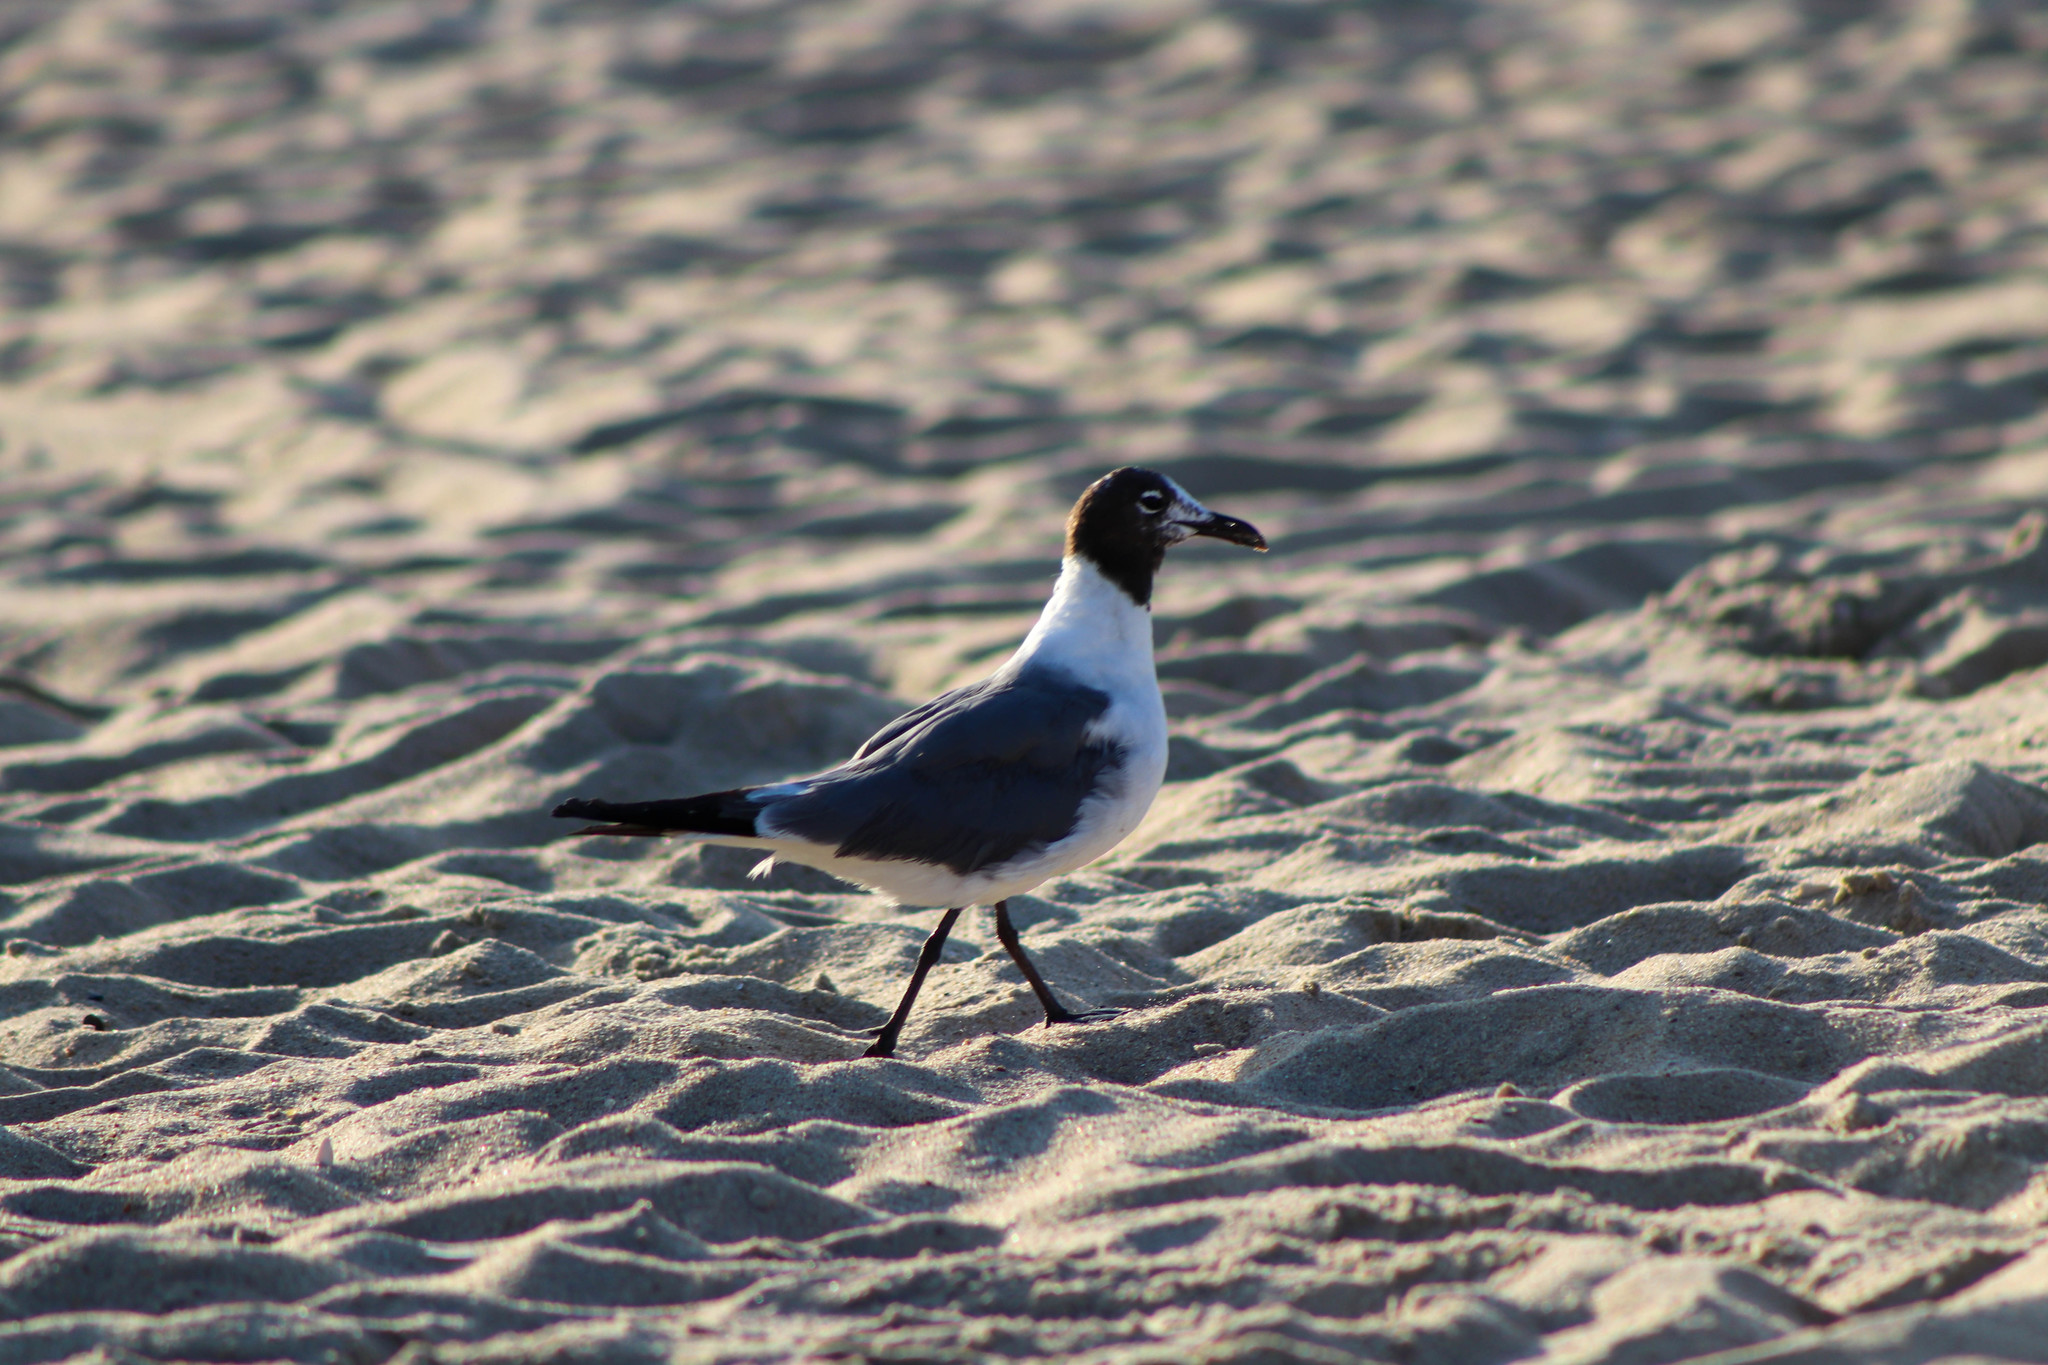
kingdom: Animalia
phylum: Chordata
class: Aves
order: Charadriiformes
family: Laridae
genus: Leucophaeus
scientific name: Leucophaeus atricilla
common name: Laughing gull
